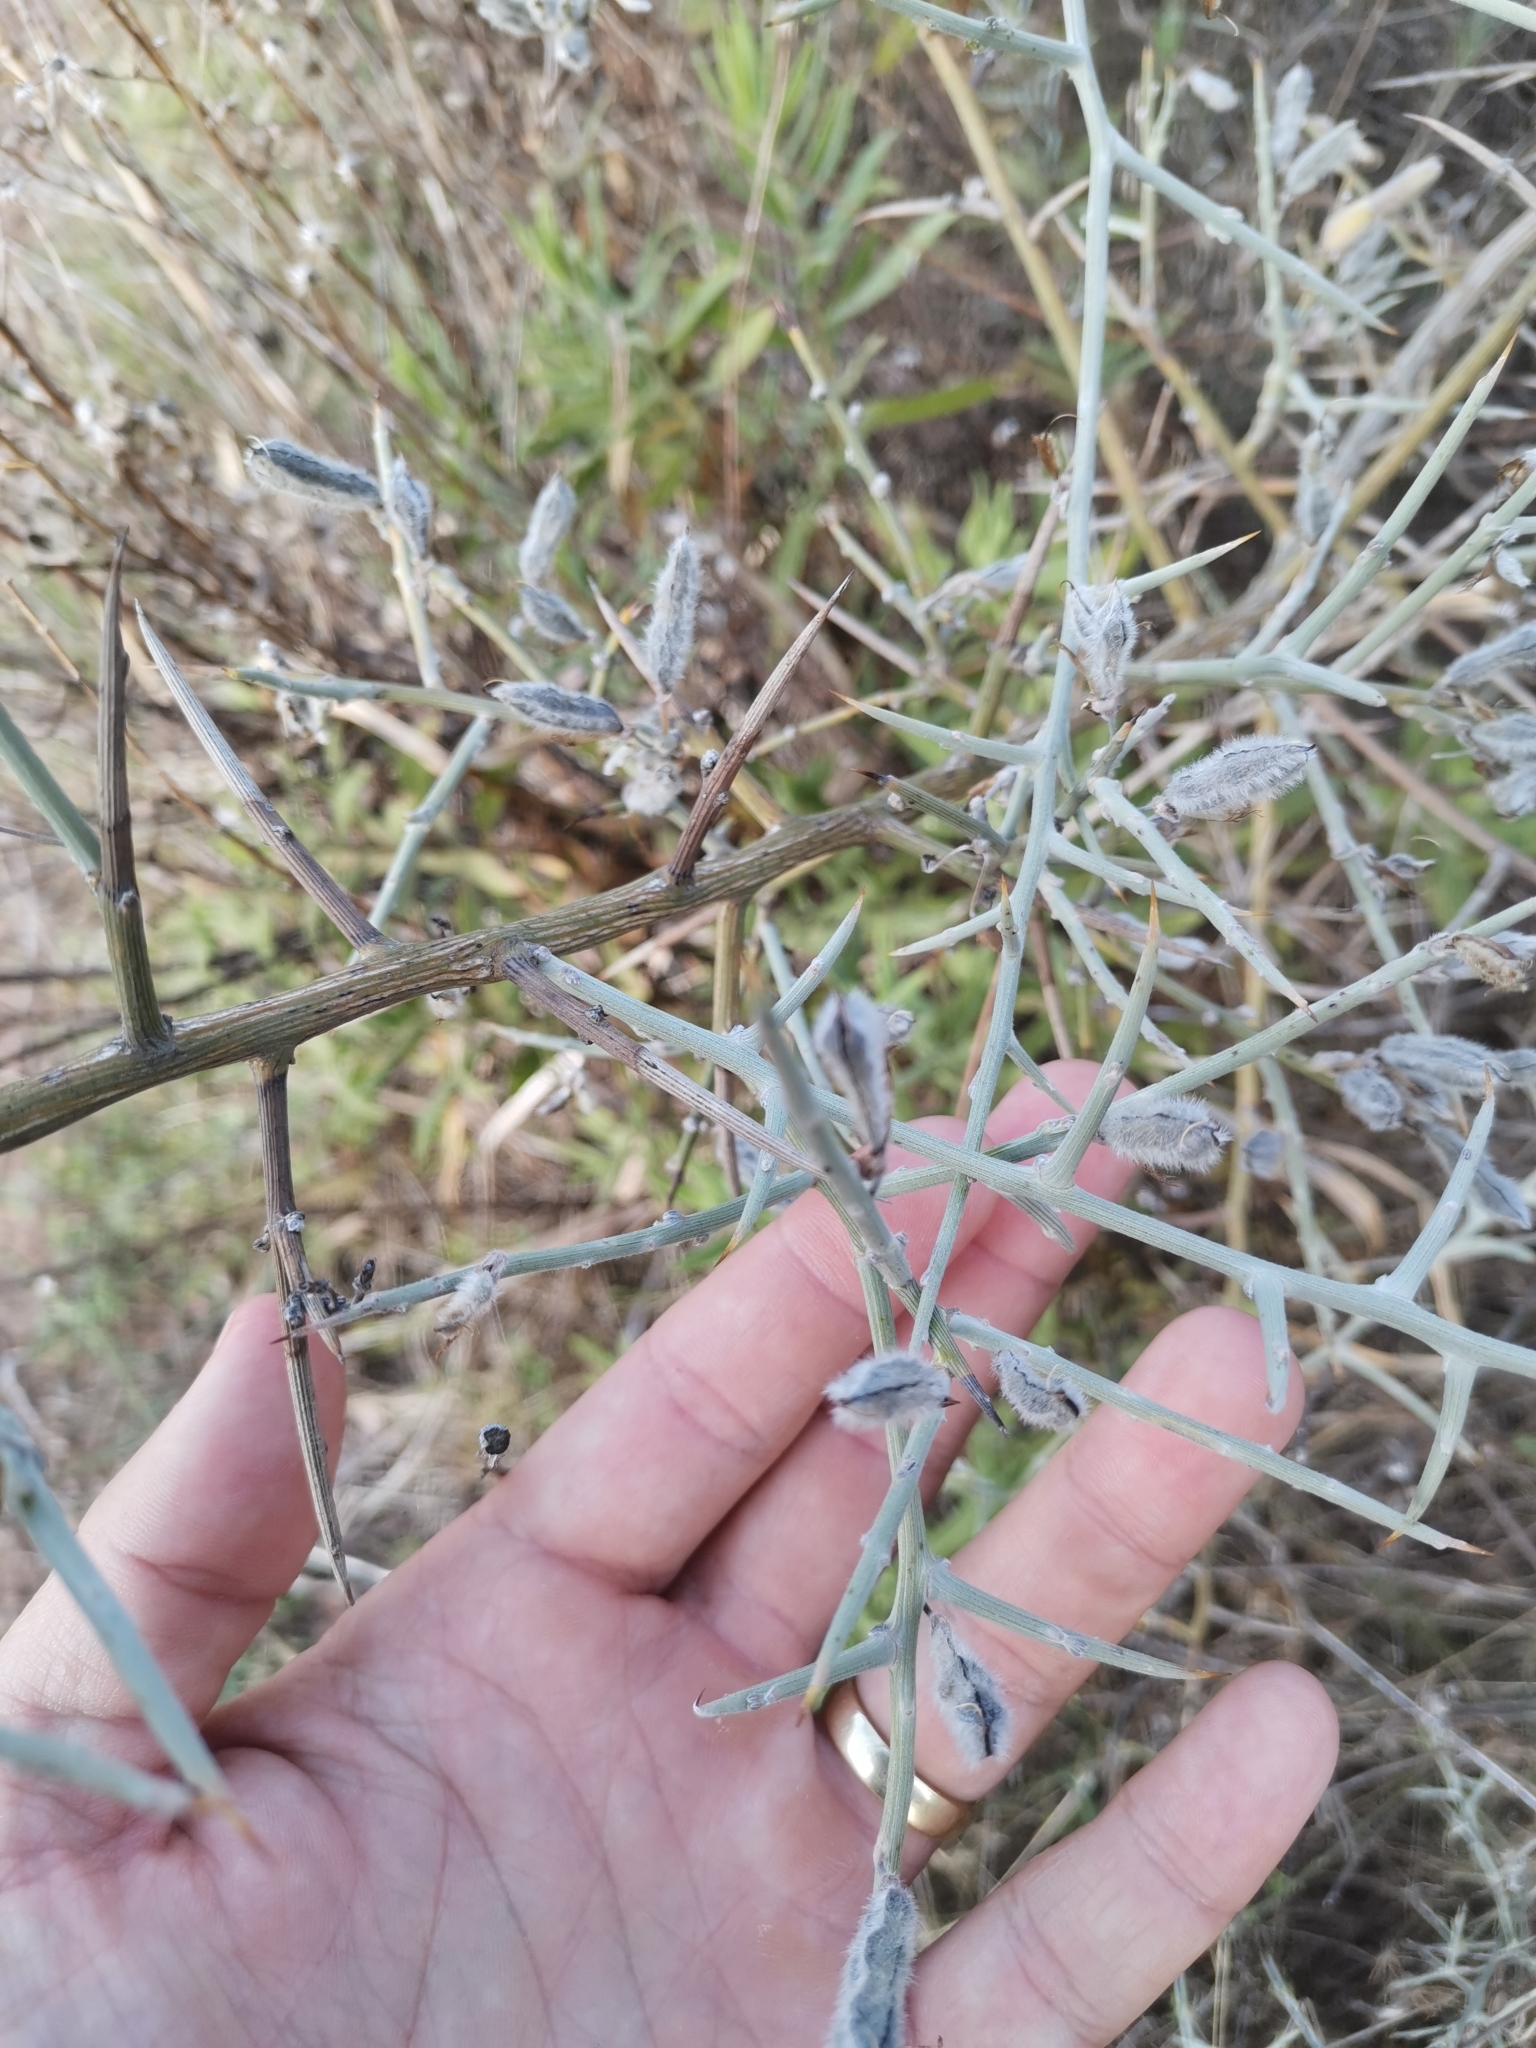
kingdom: Plantae
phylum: Tracheophyta
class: Magnoliopsida
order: Fabales
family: Fabaceae
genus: Calicotome
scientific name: Calicotome villosa
